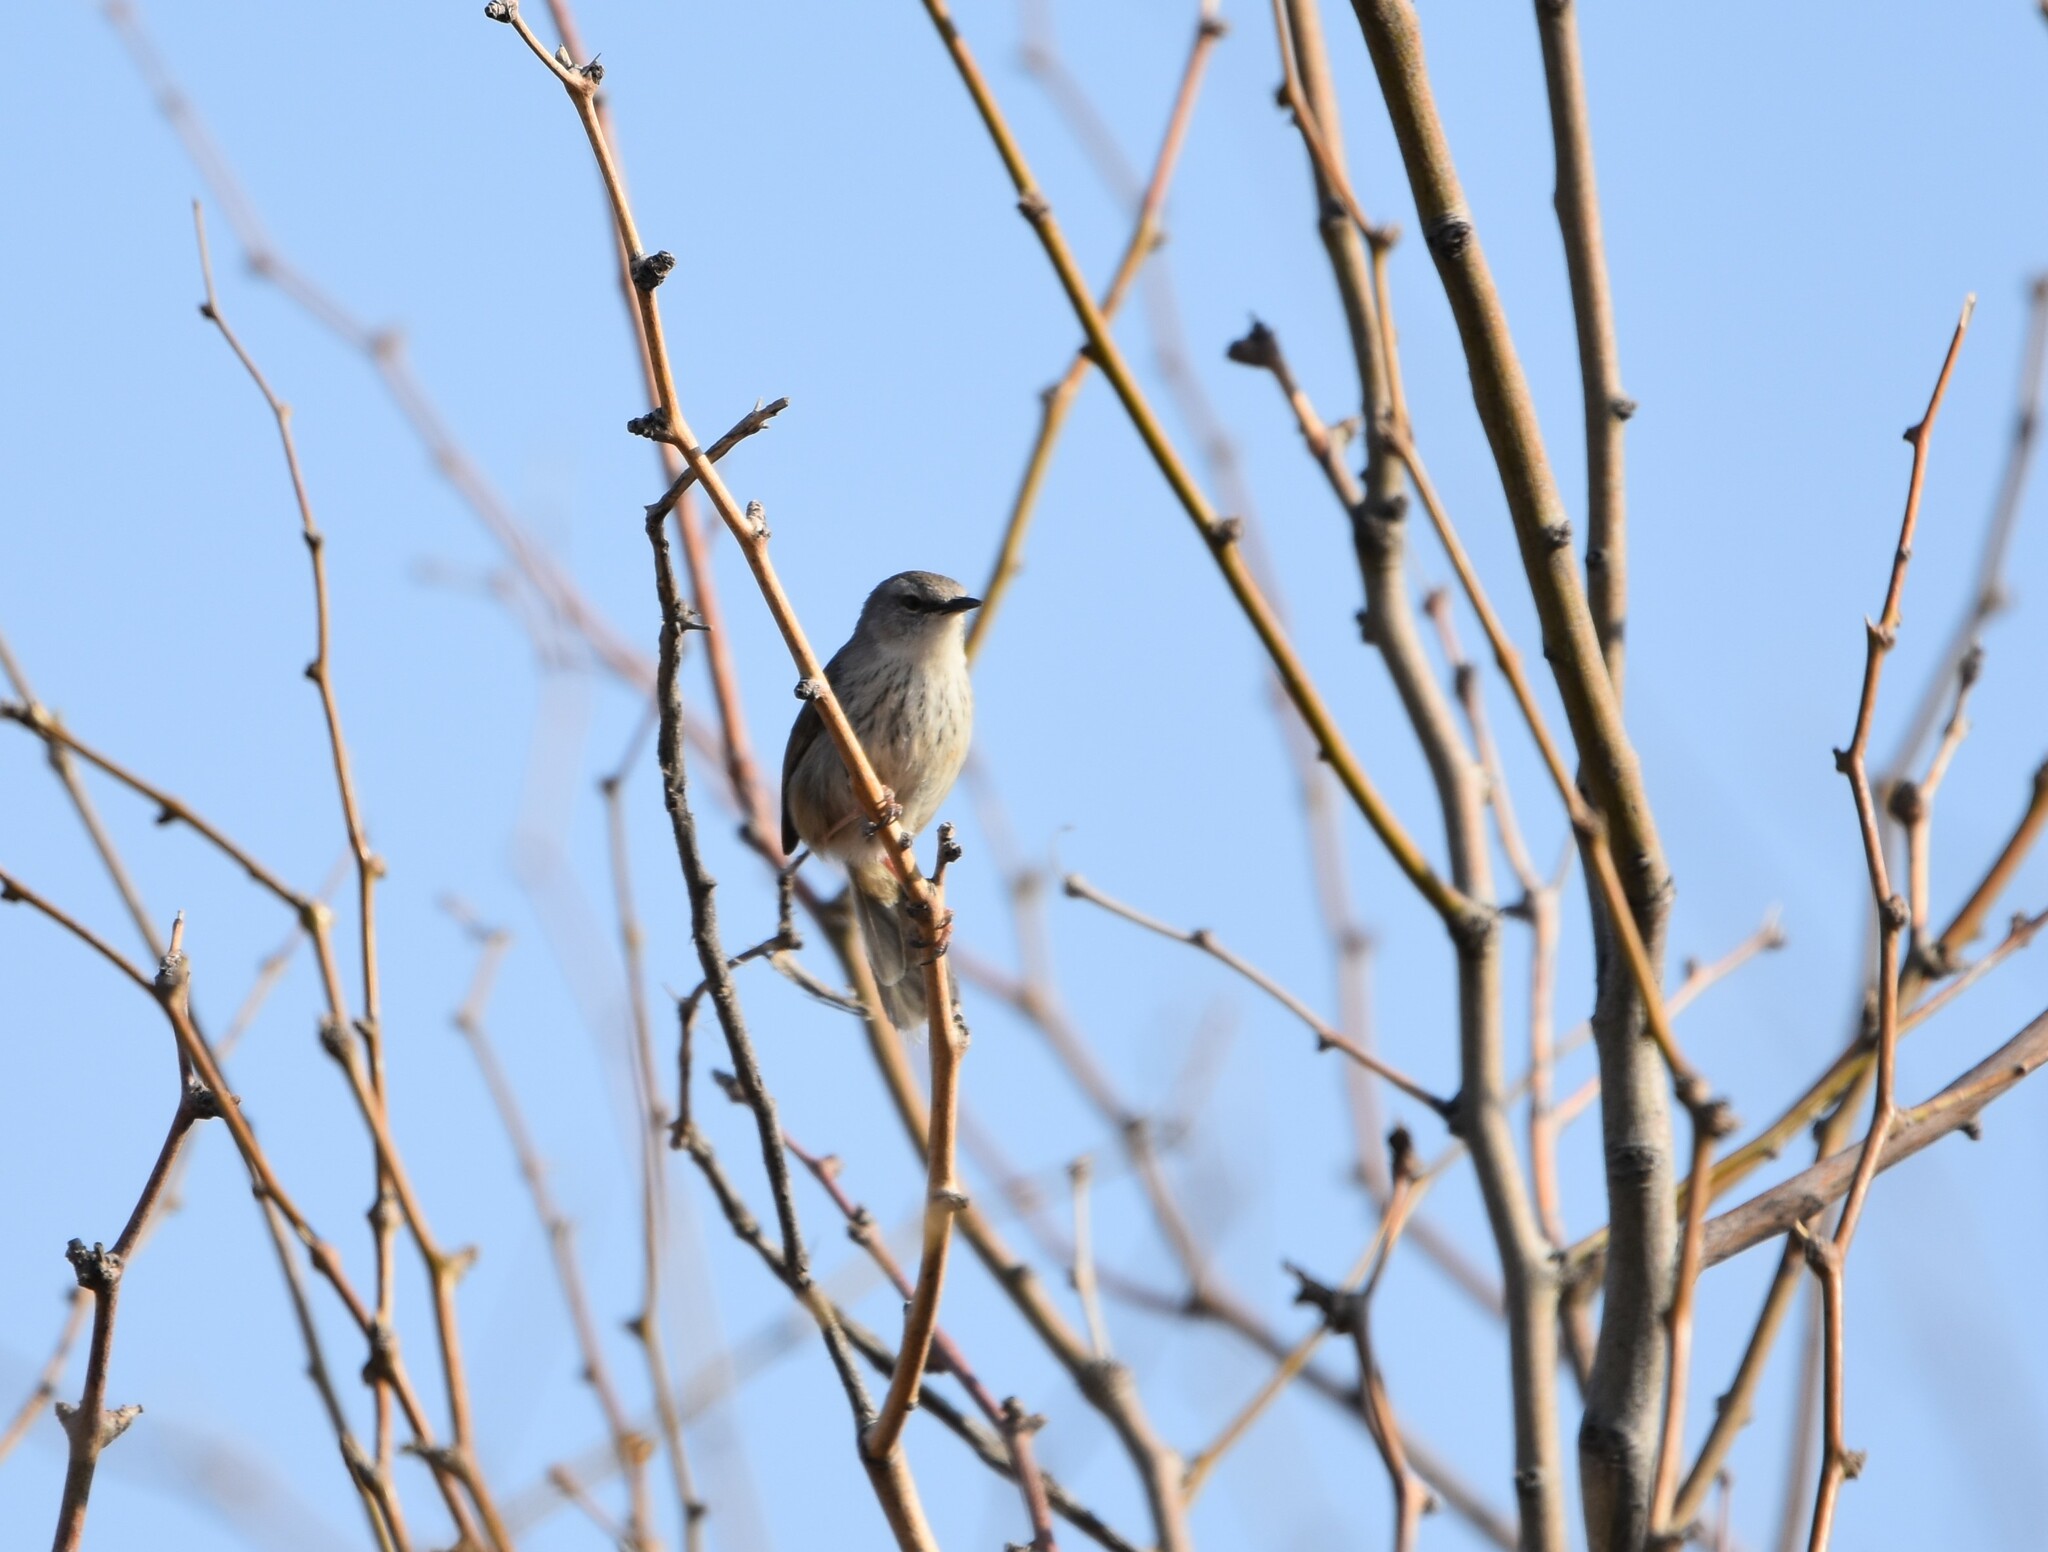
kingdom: Animalia
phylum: Chordata
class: Aves
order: Passeriformes
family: Cisticolidae
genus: Phragmacia
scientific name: Phragmacia substriata
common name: Namaqua warbler
